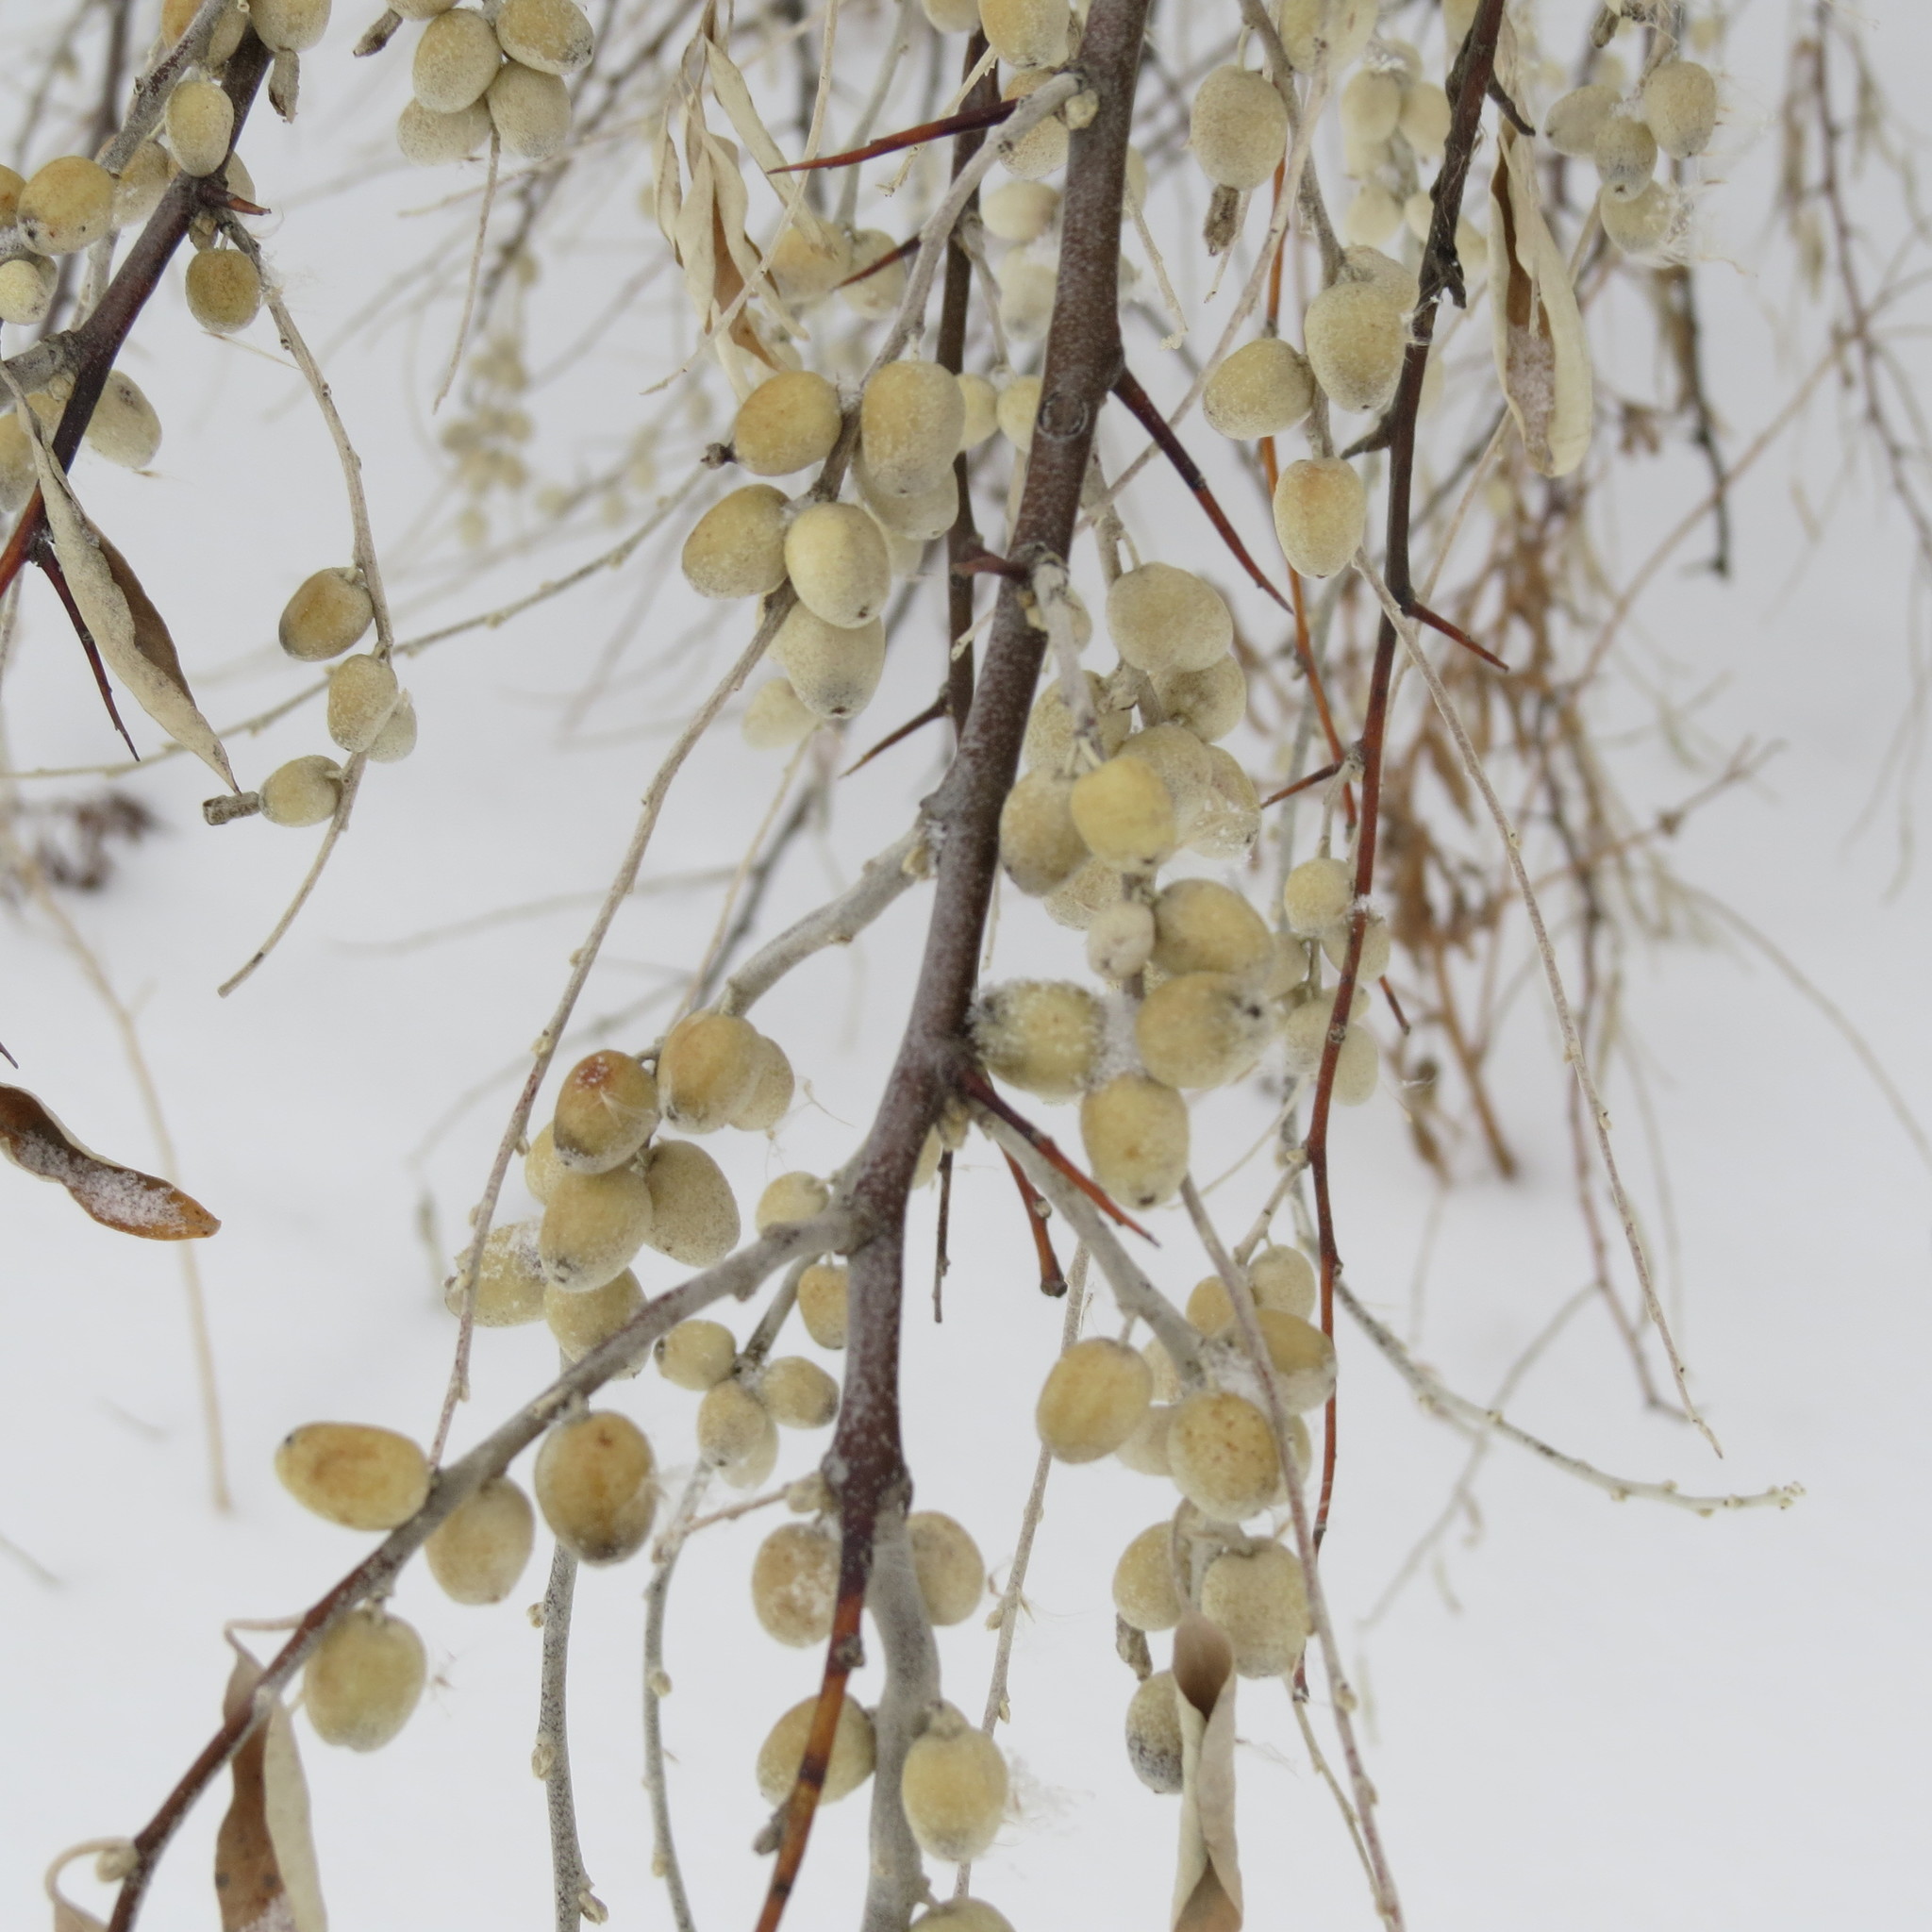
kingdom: Plantae
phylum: Tracheophyta
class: Magnoliopsida
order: Rosales
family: Elaeagnaceae
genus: Elaeagnus
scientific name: Elaeagnus angustifolia
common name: Russian olive
